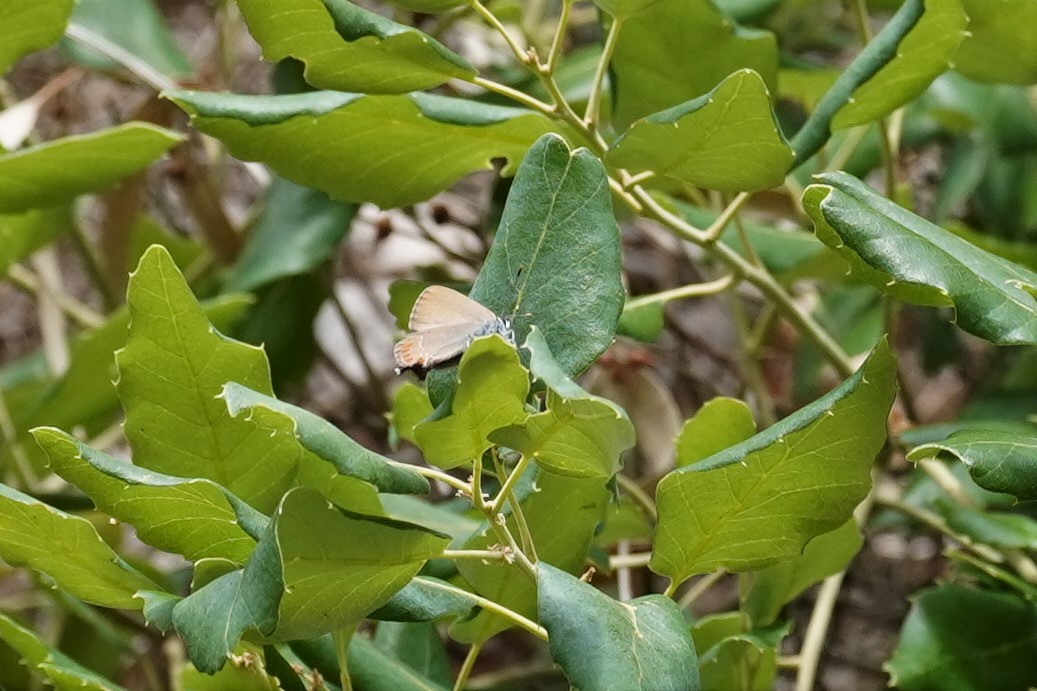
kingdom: Animalia
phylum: Arthropoda
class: Insecta
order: Lepidoptera
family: Lycaenidae
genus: Fixsenia
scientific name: Fixsenia esculi
